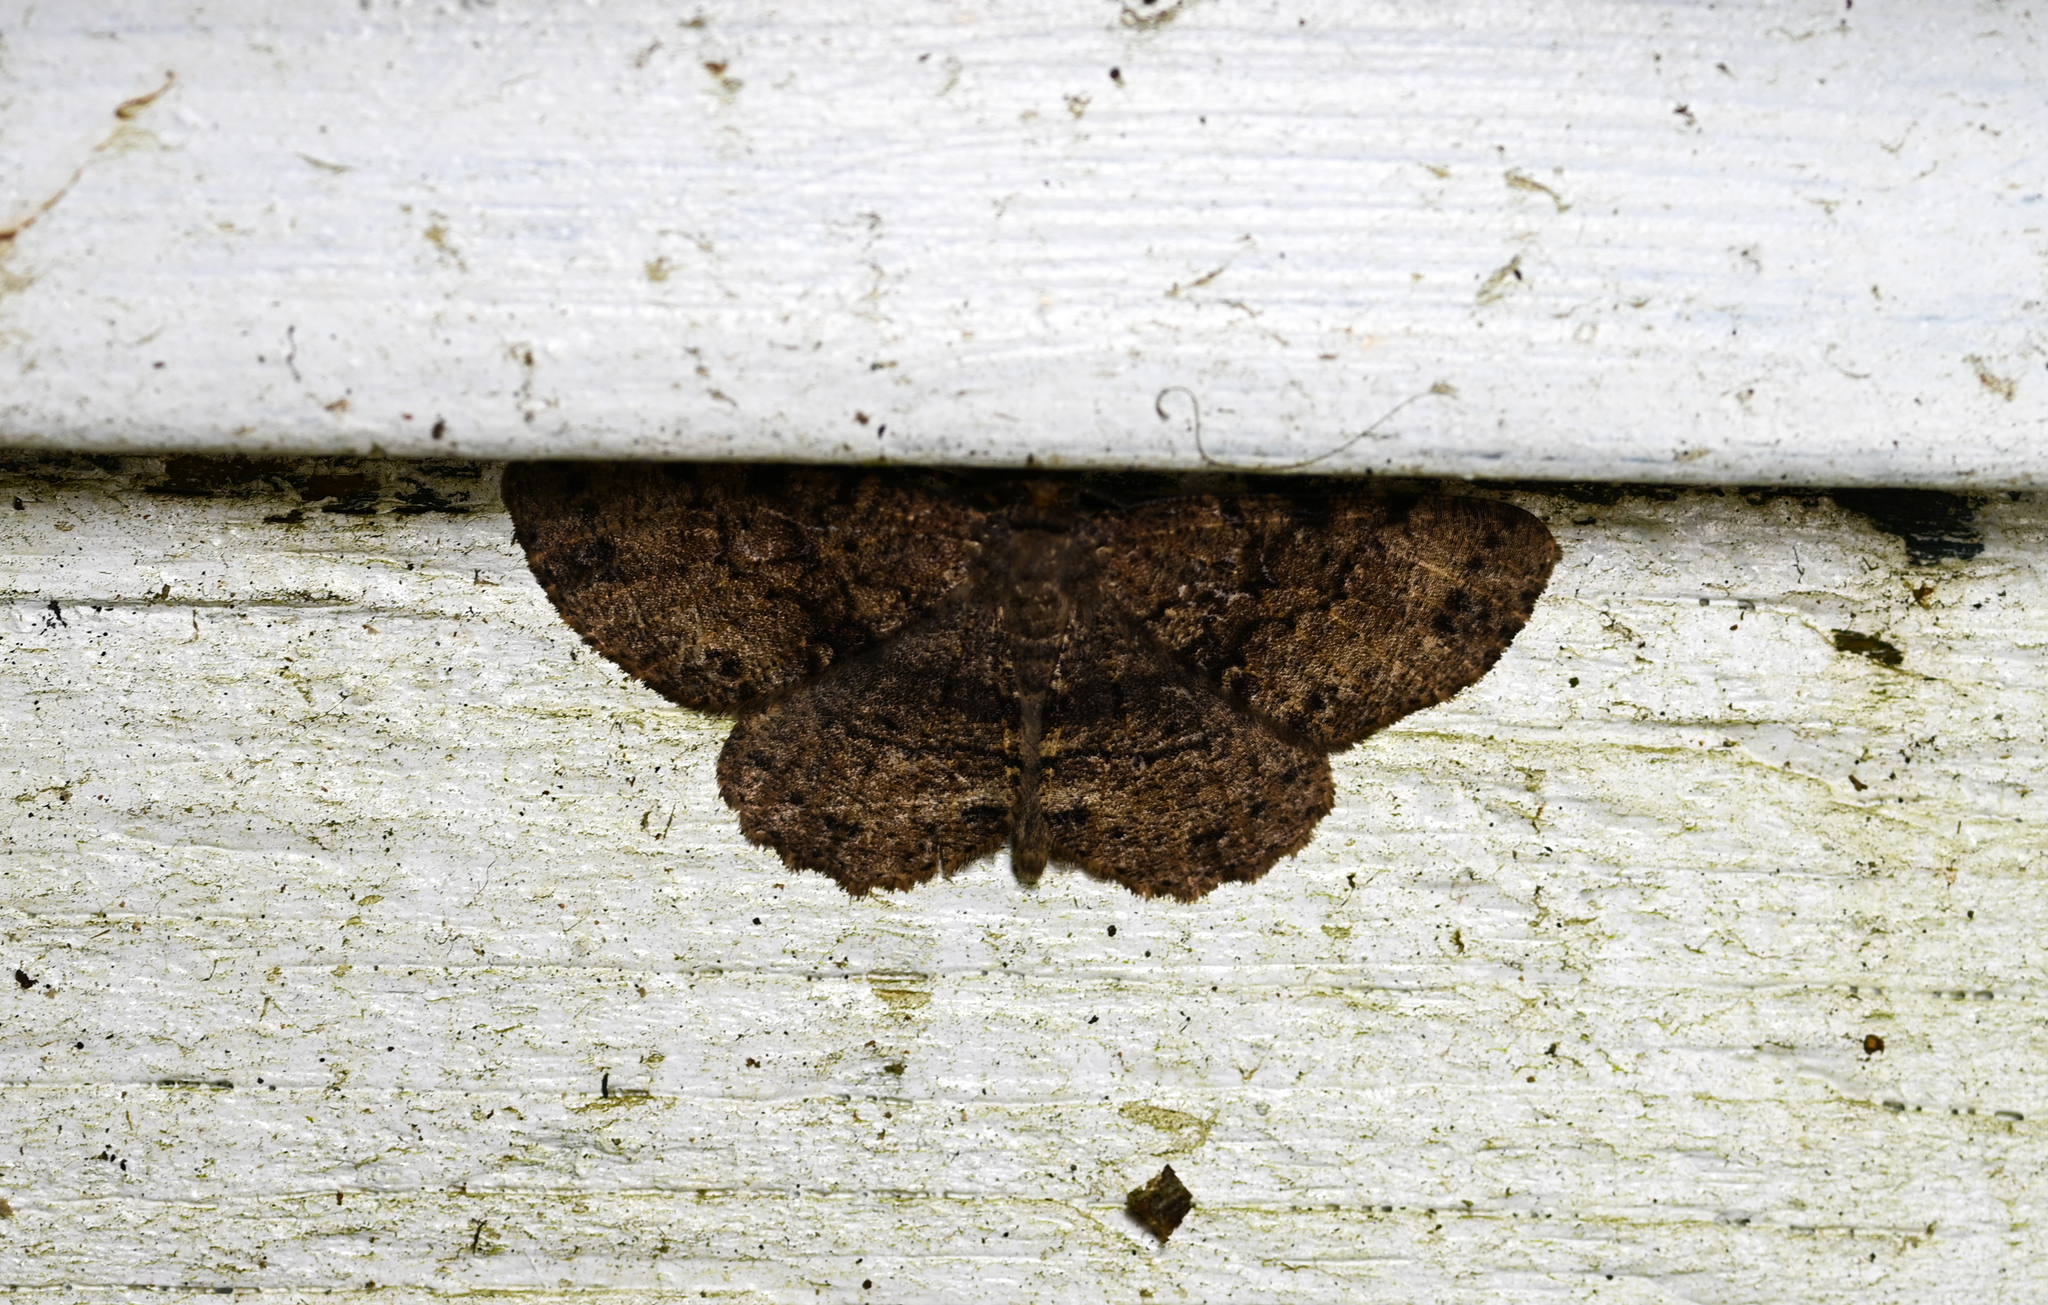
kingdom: Animalia
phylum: Arthropoda
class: Insecta
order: Lepidoptera
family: Geometridae
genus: Melanolophia
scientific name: Melanolophia canadaria
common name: Canadian melanolophia
